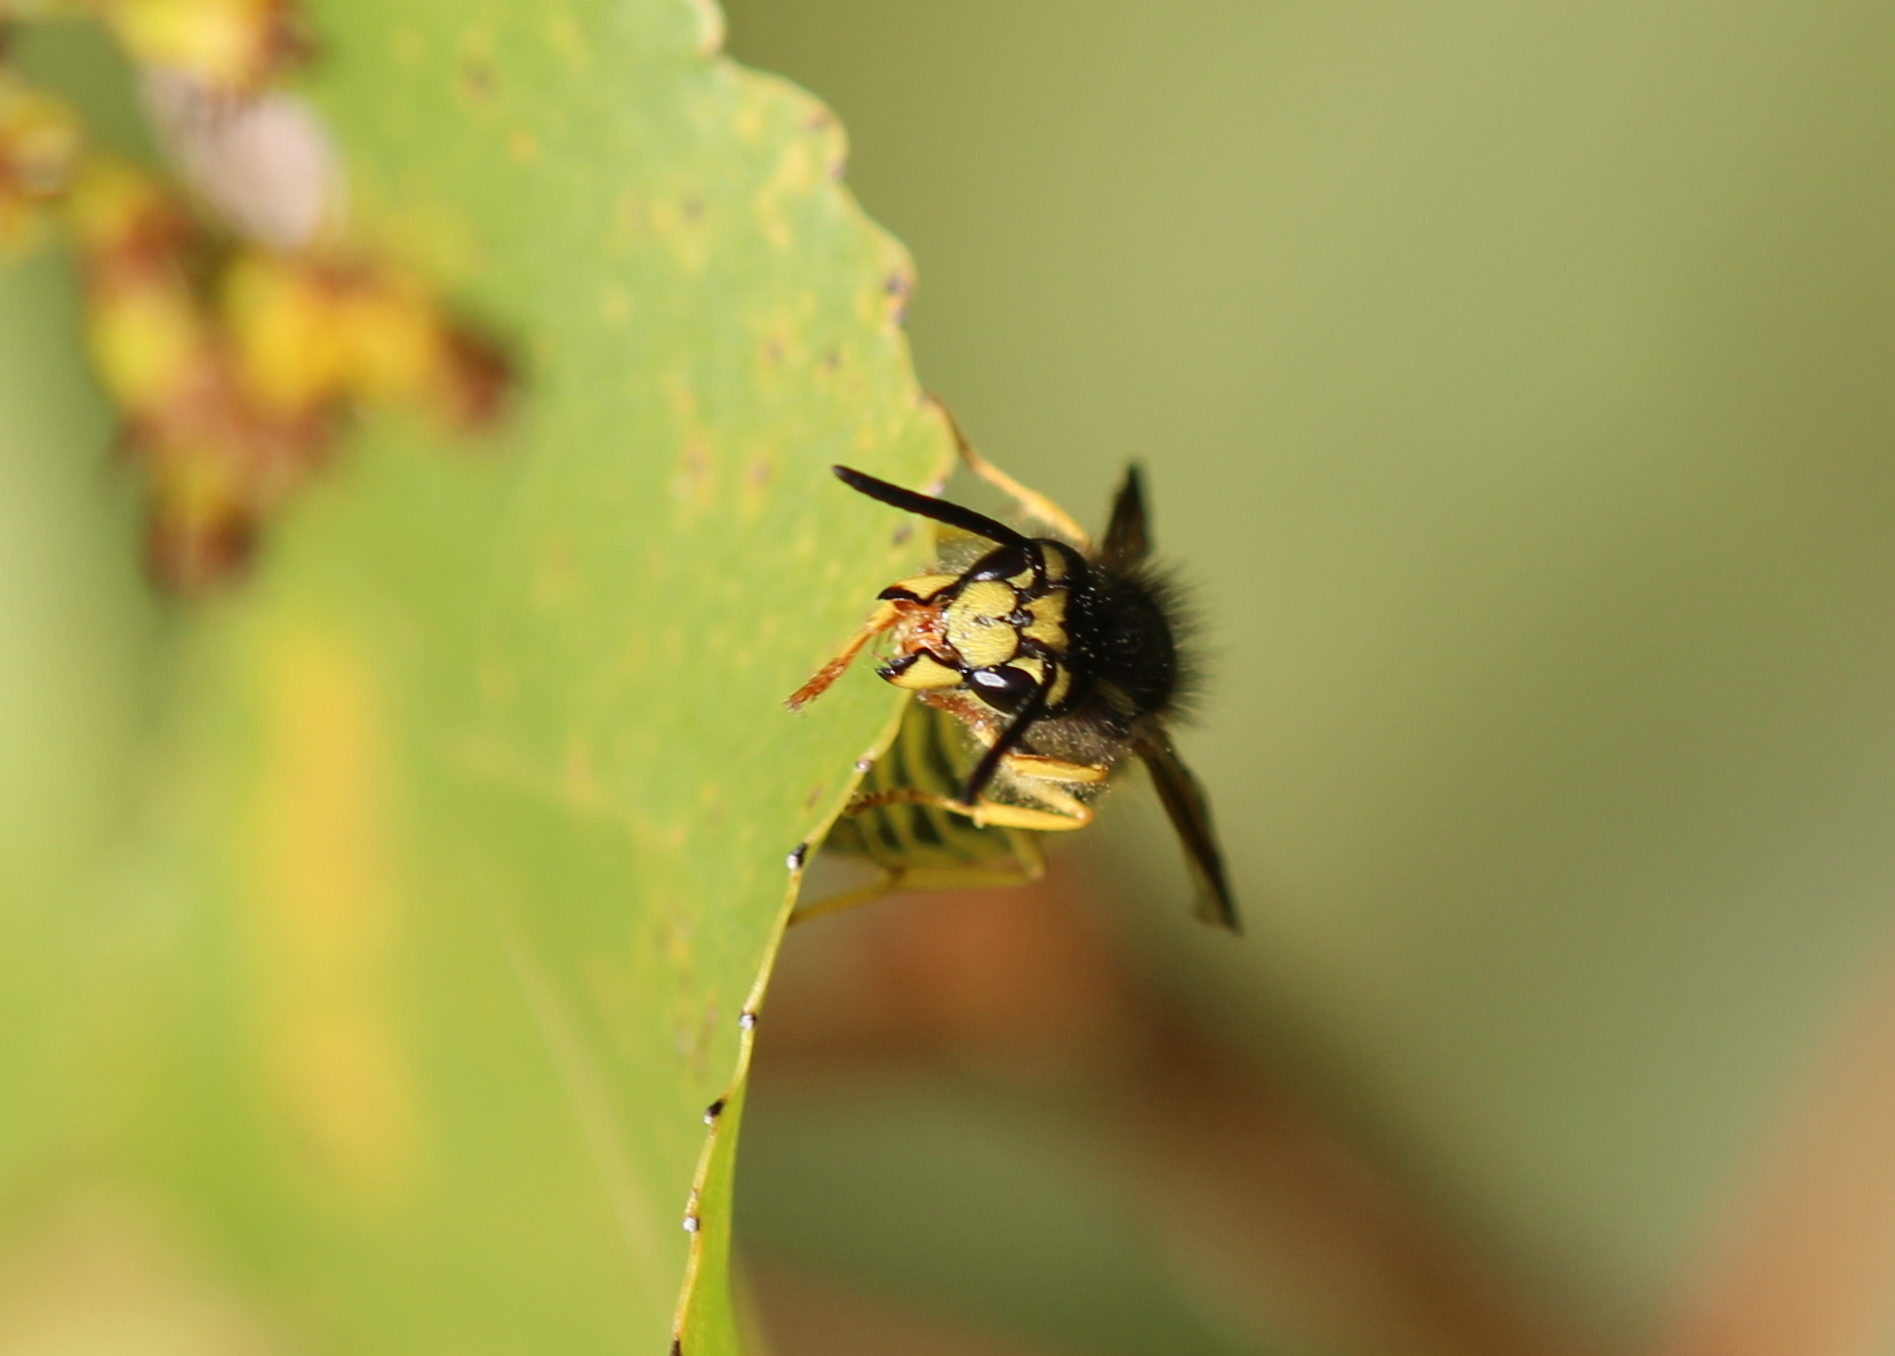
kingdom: Animalia
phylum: Arthropoda
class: Insecta
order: Hymenoptera
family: Vespidae
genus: Vespula
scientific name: Vespula
